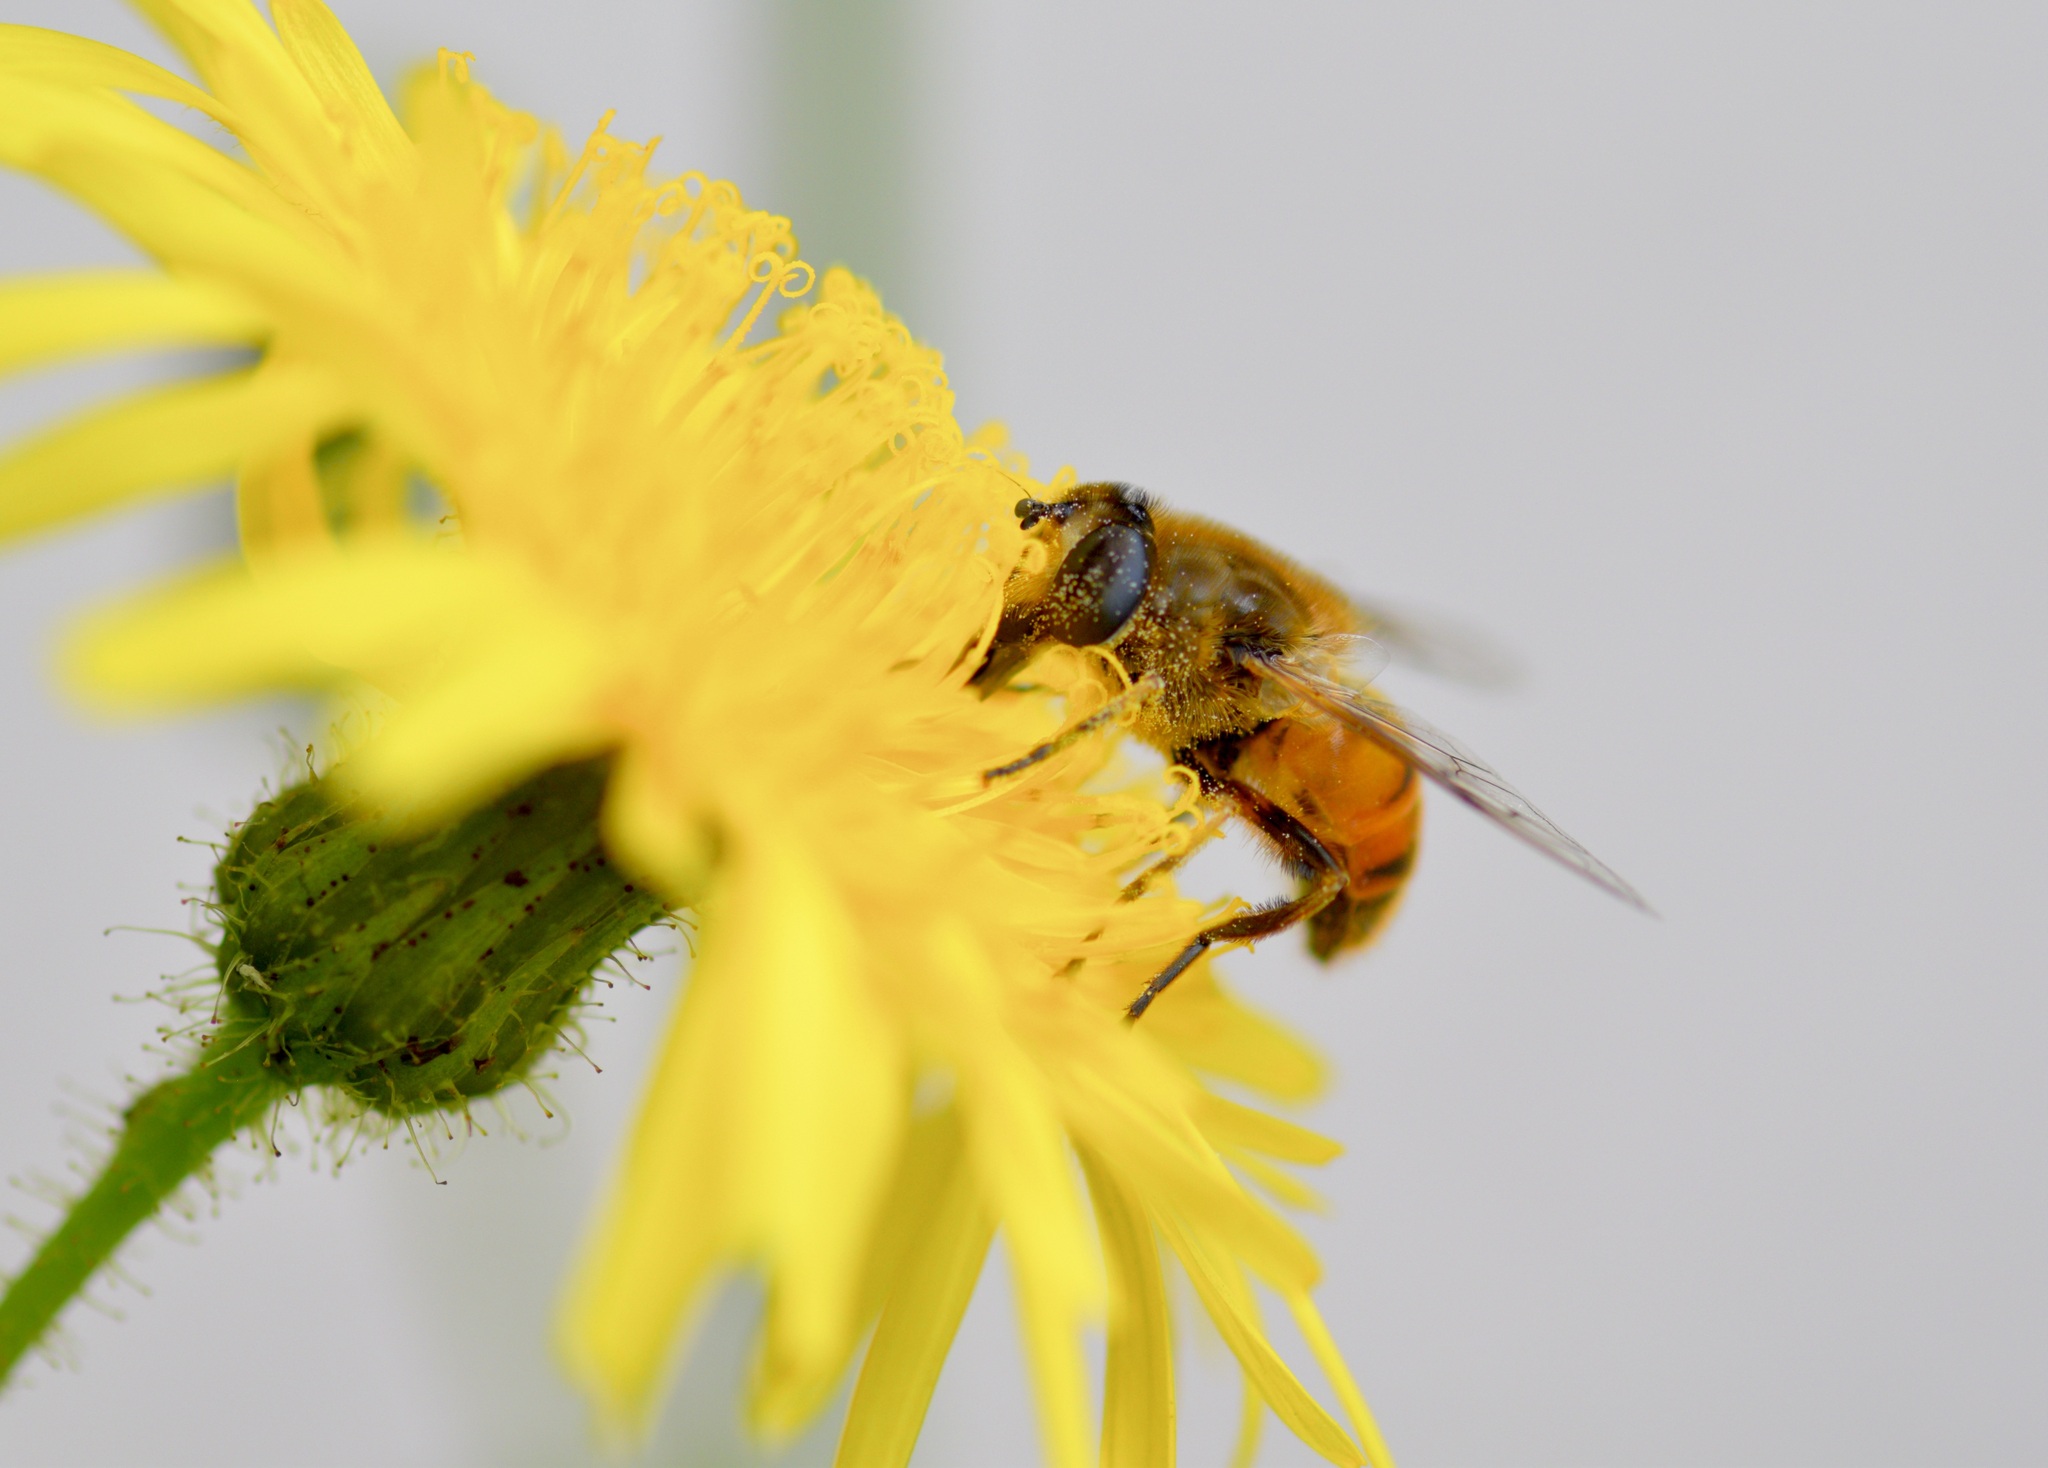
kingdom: Animalia
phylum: Arthropoda
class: Insecta
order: Diptera
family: Syrphidae
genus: Eristalis
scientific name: Eristalis tenax
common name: Drone fly
